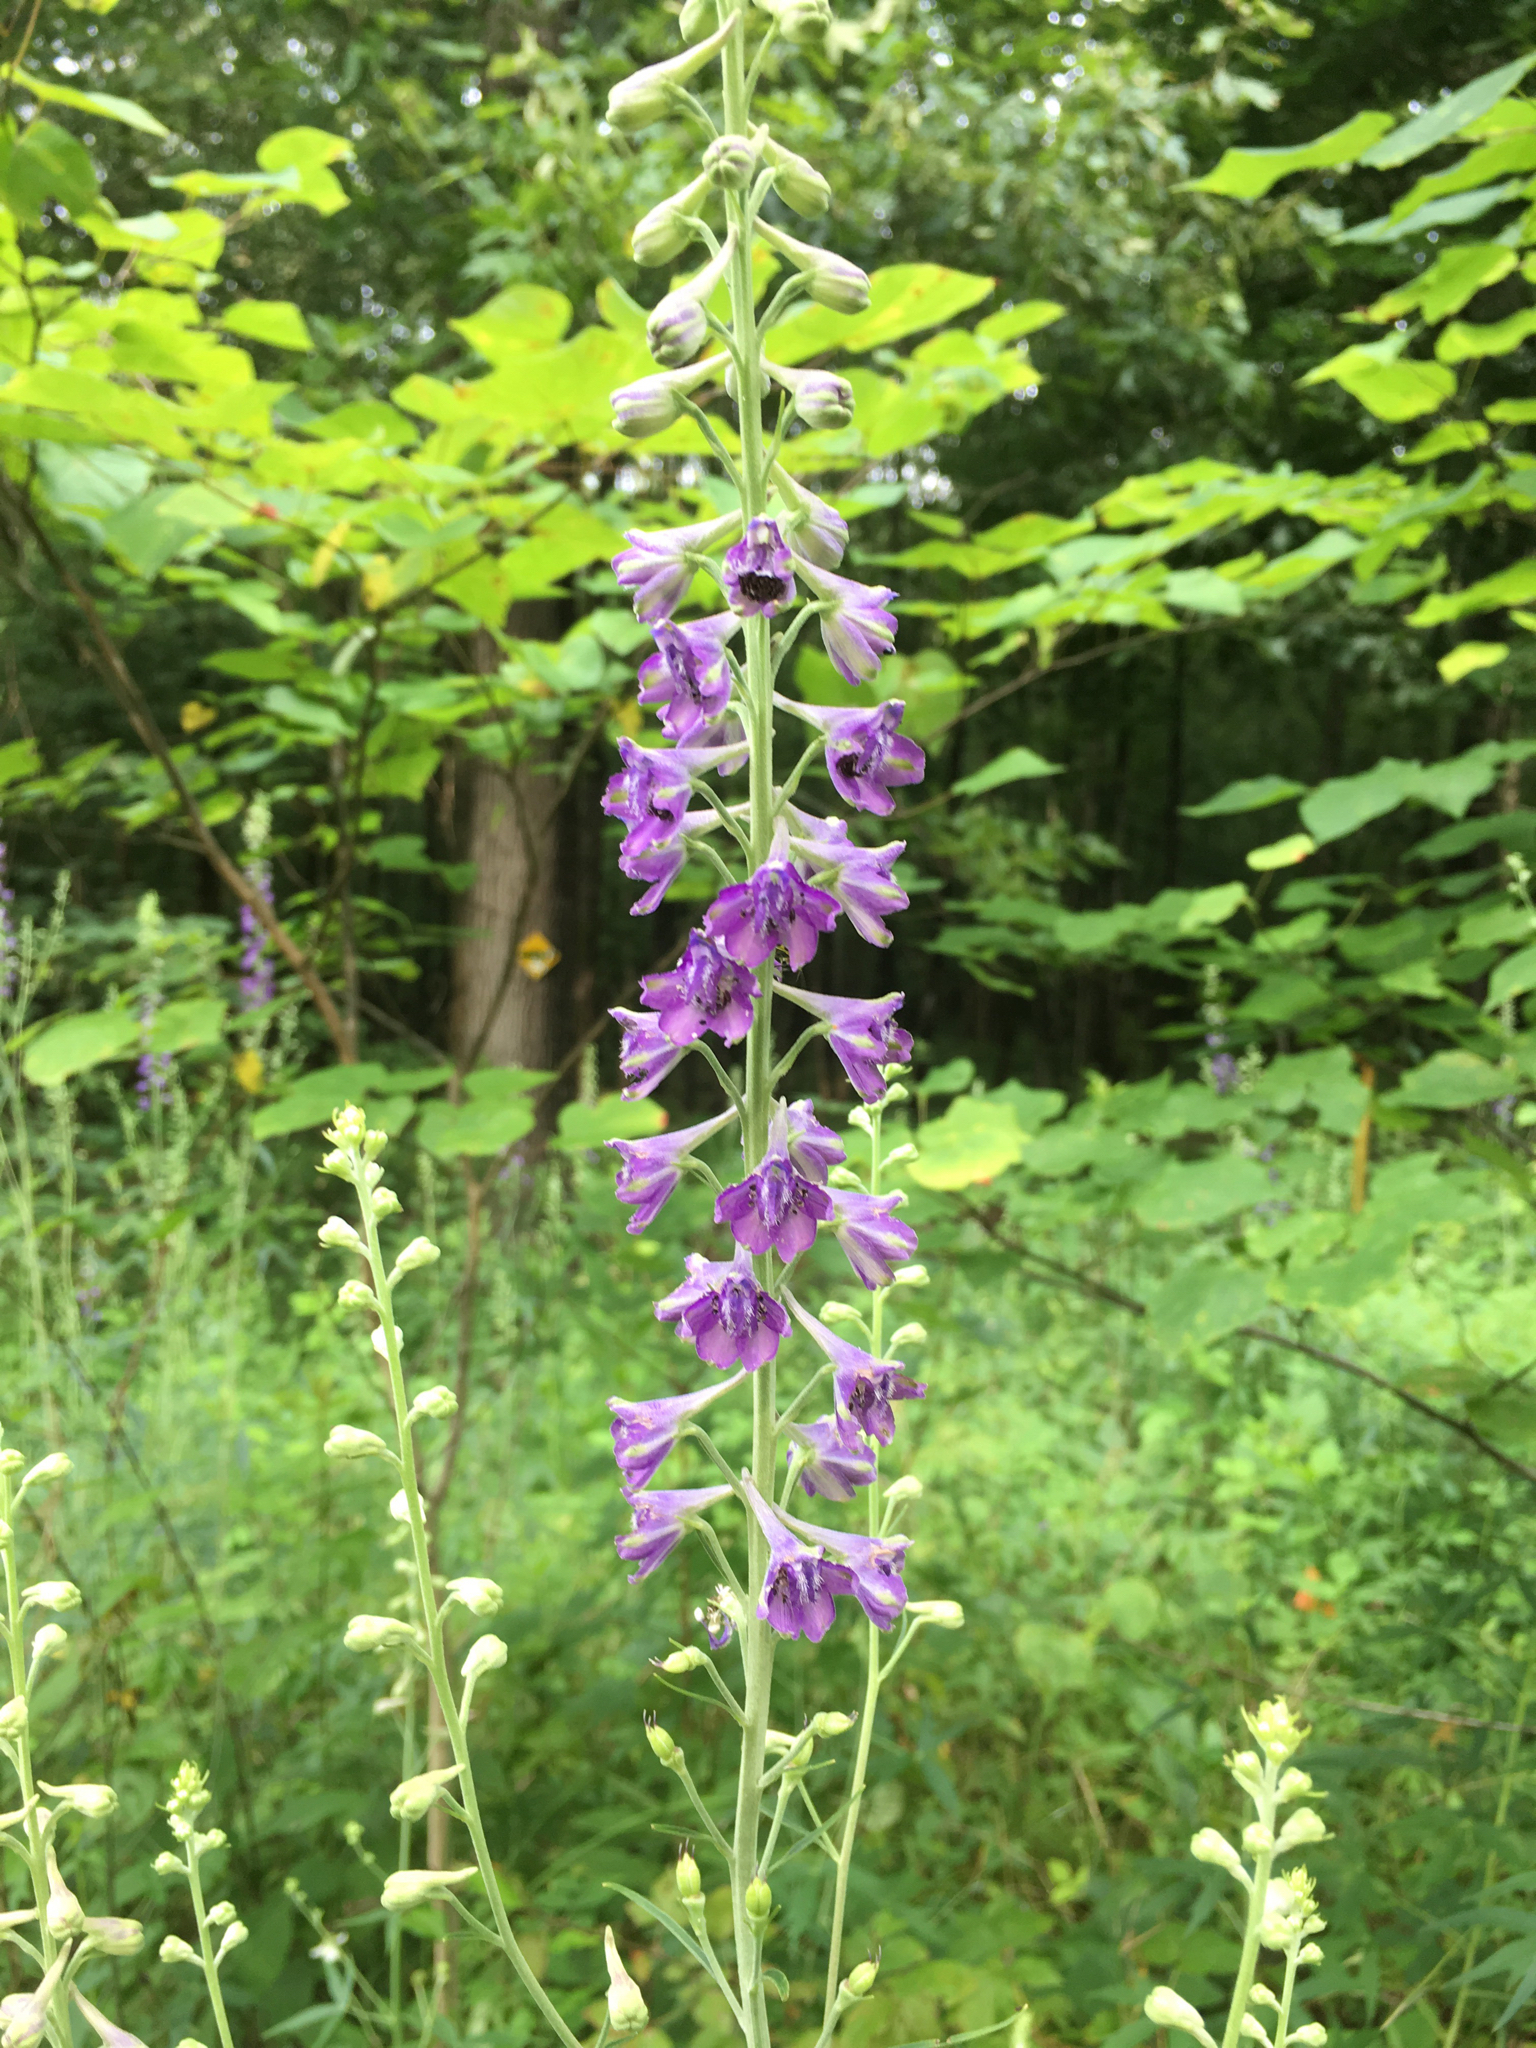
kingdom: Plantae
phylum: Tracheophyta
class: Magnoliopsida
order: Ranunculales
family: Ranunculaceae
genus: Delphinium
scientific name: Delphinium exaltatum
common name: Tall larkspur
